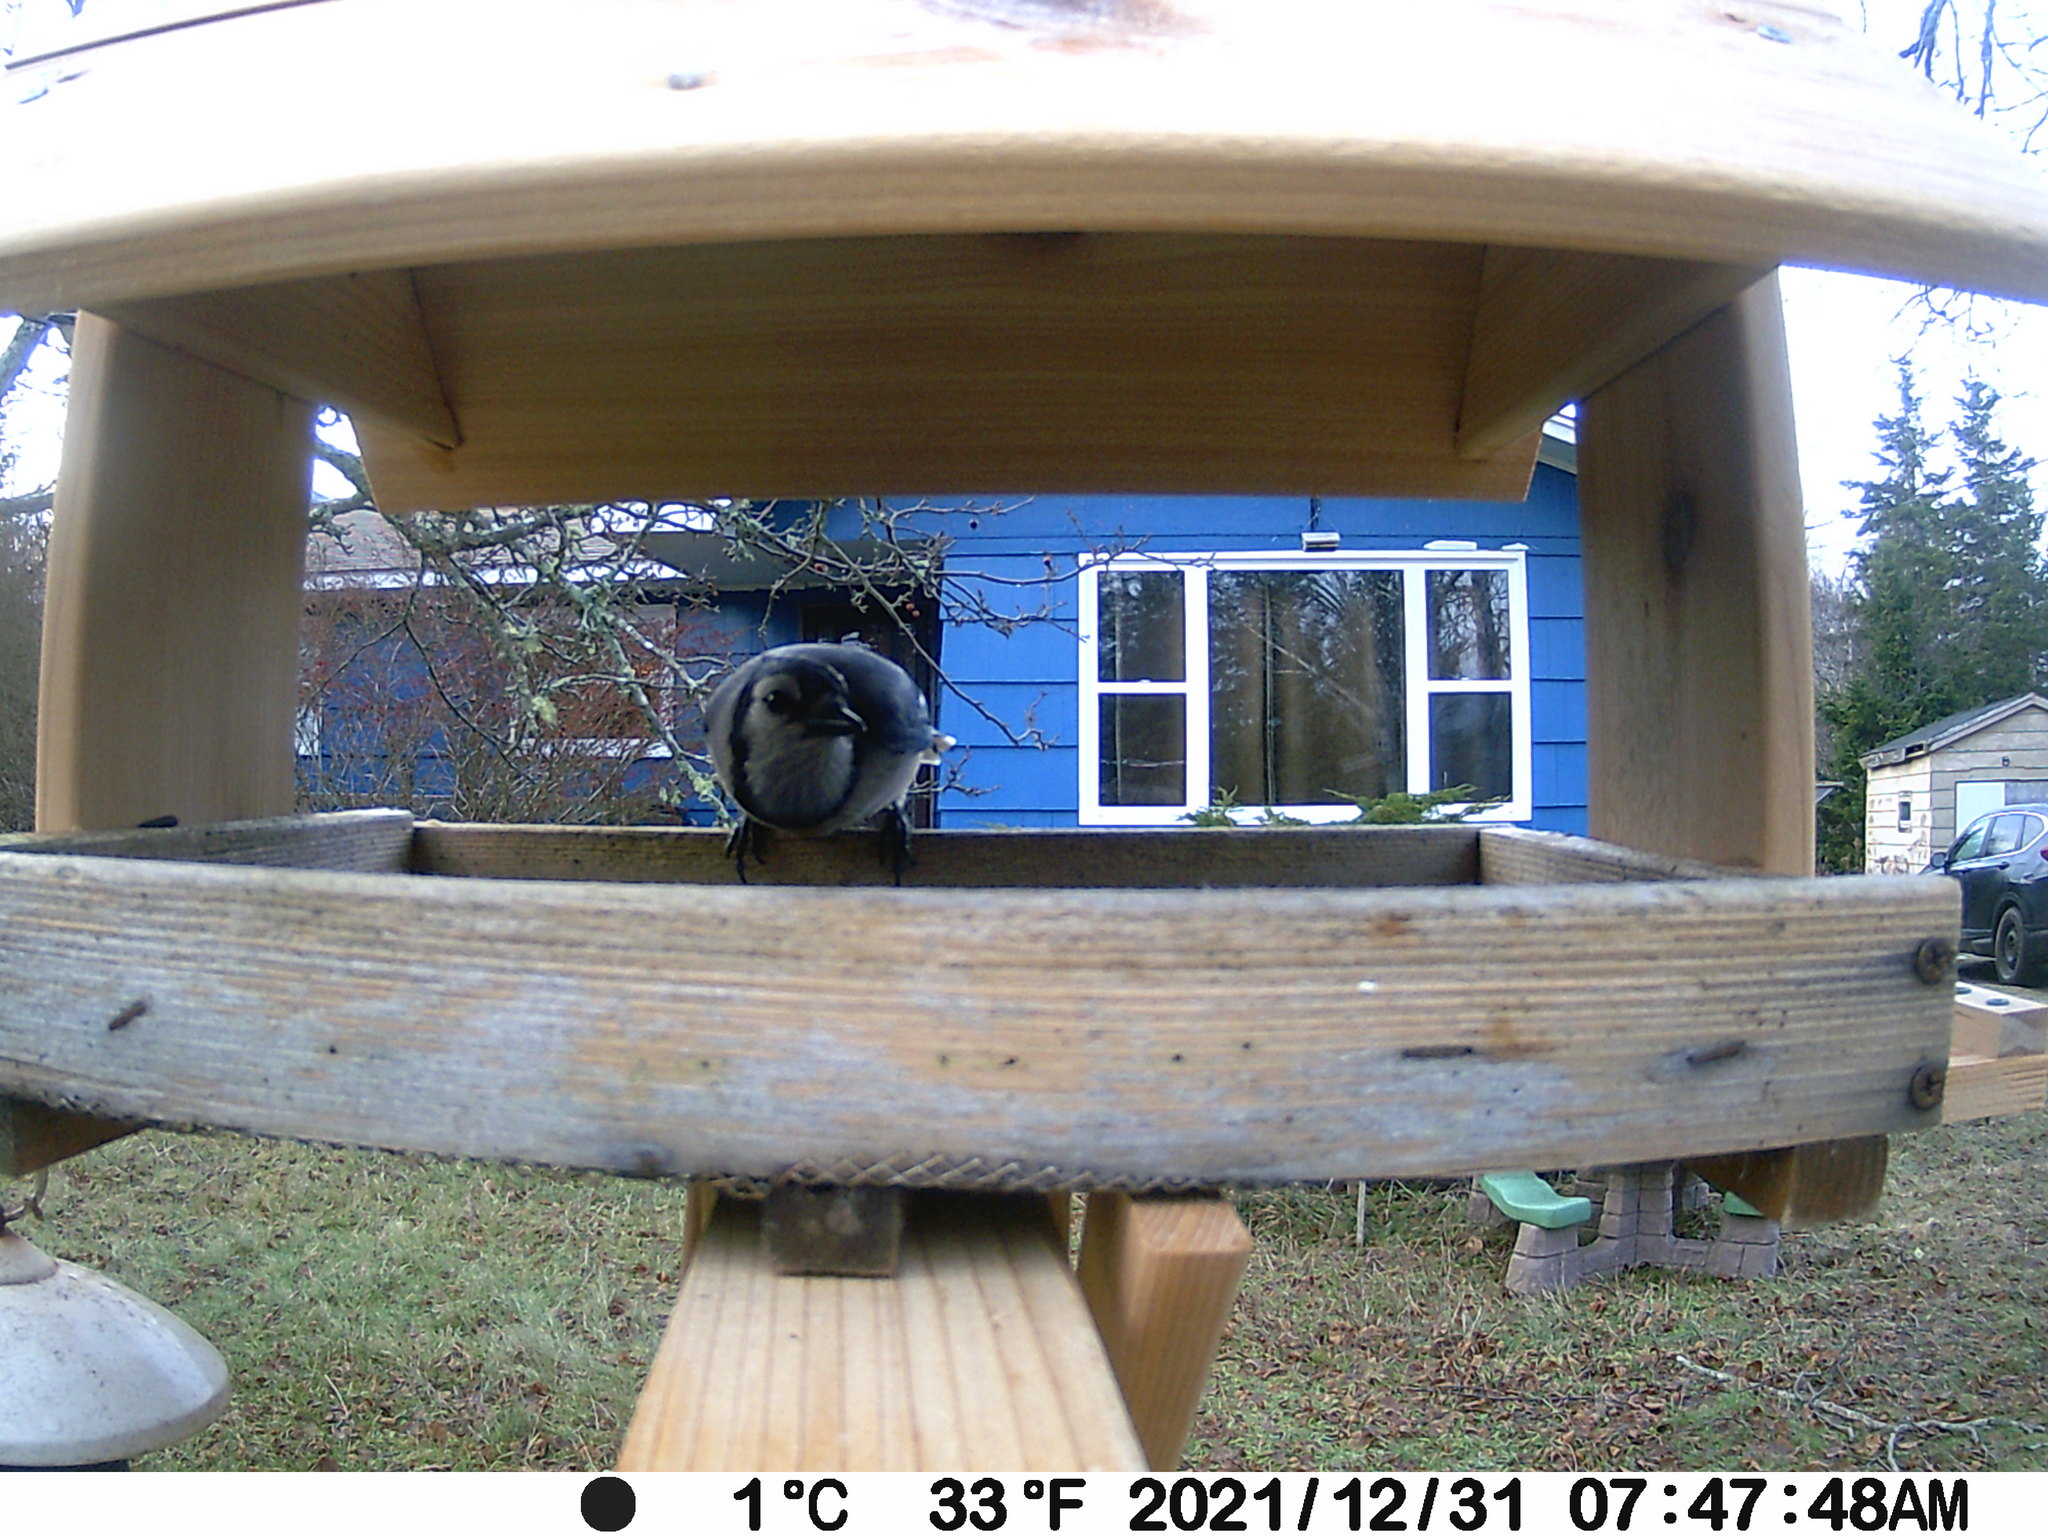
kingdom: Animalia
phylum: Chordata
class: Aves
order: Passeriformes
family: Corvidae
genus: Cyanocitta
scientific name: Cyanocitta cristata
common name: Blue jay
